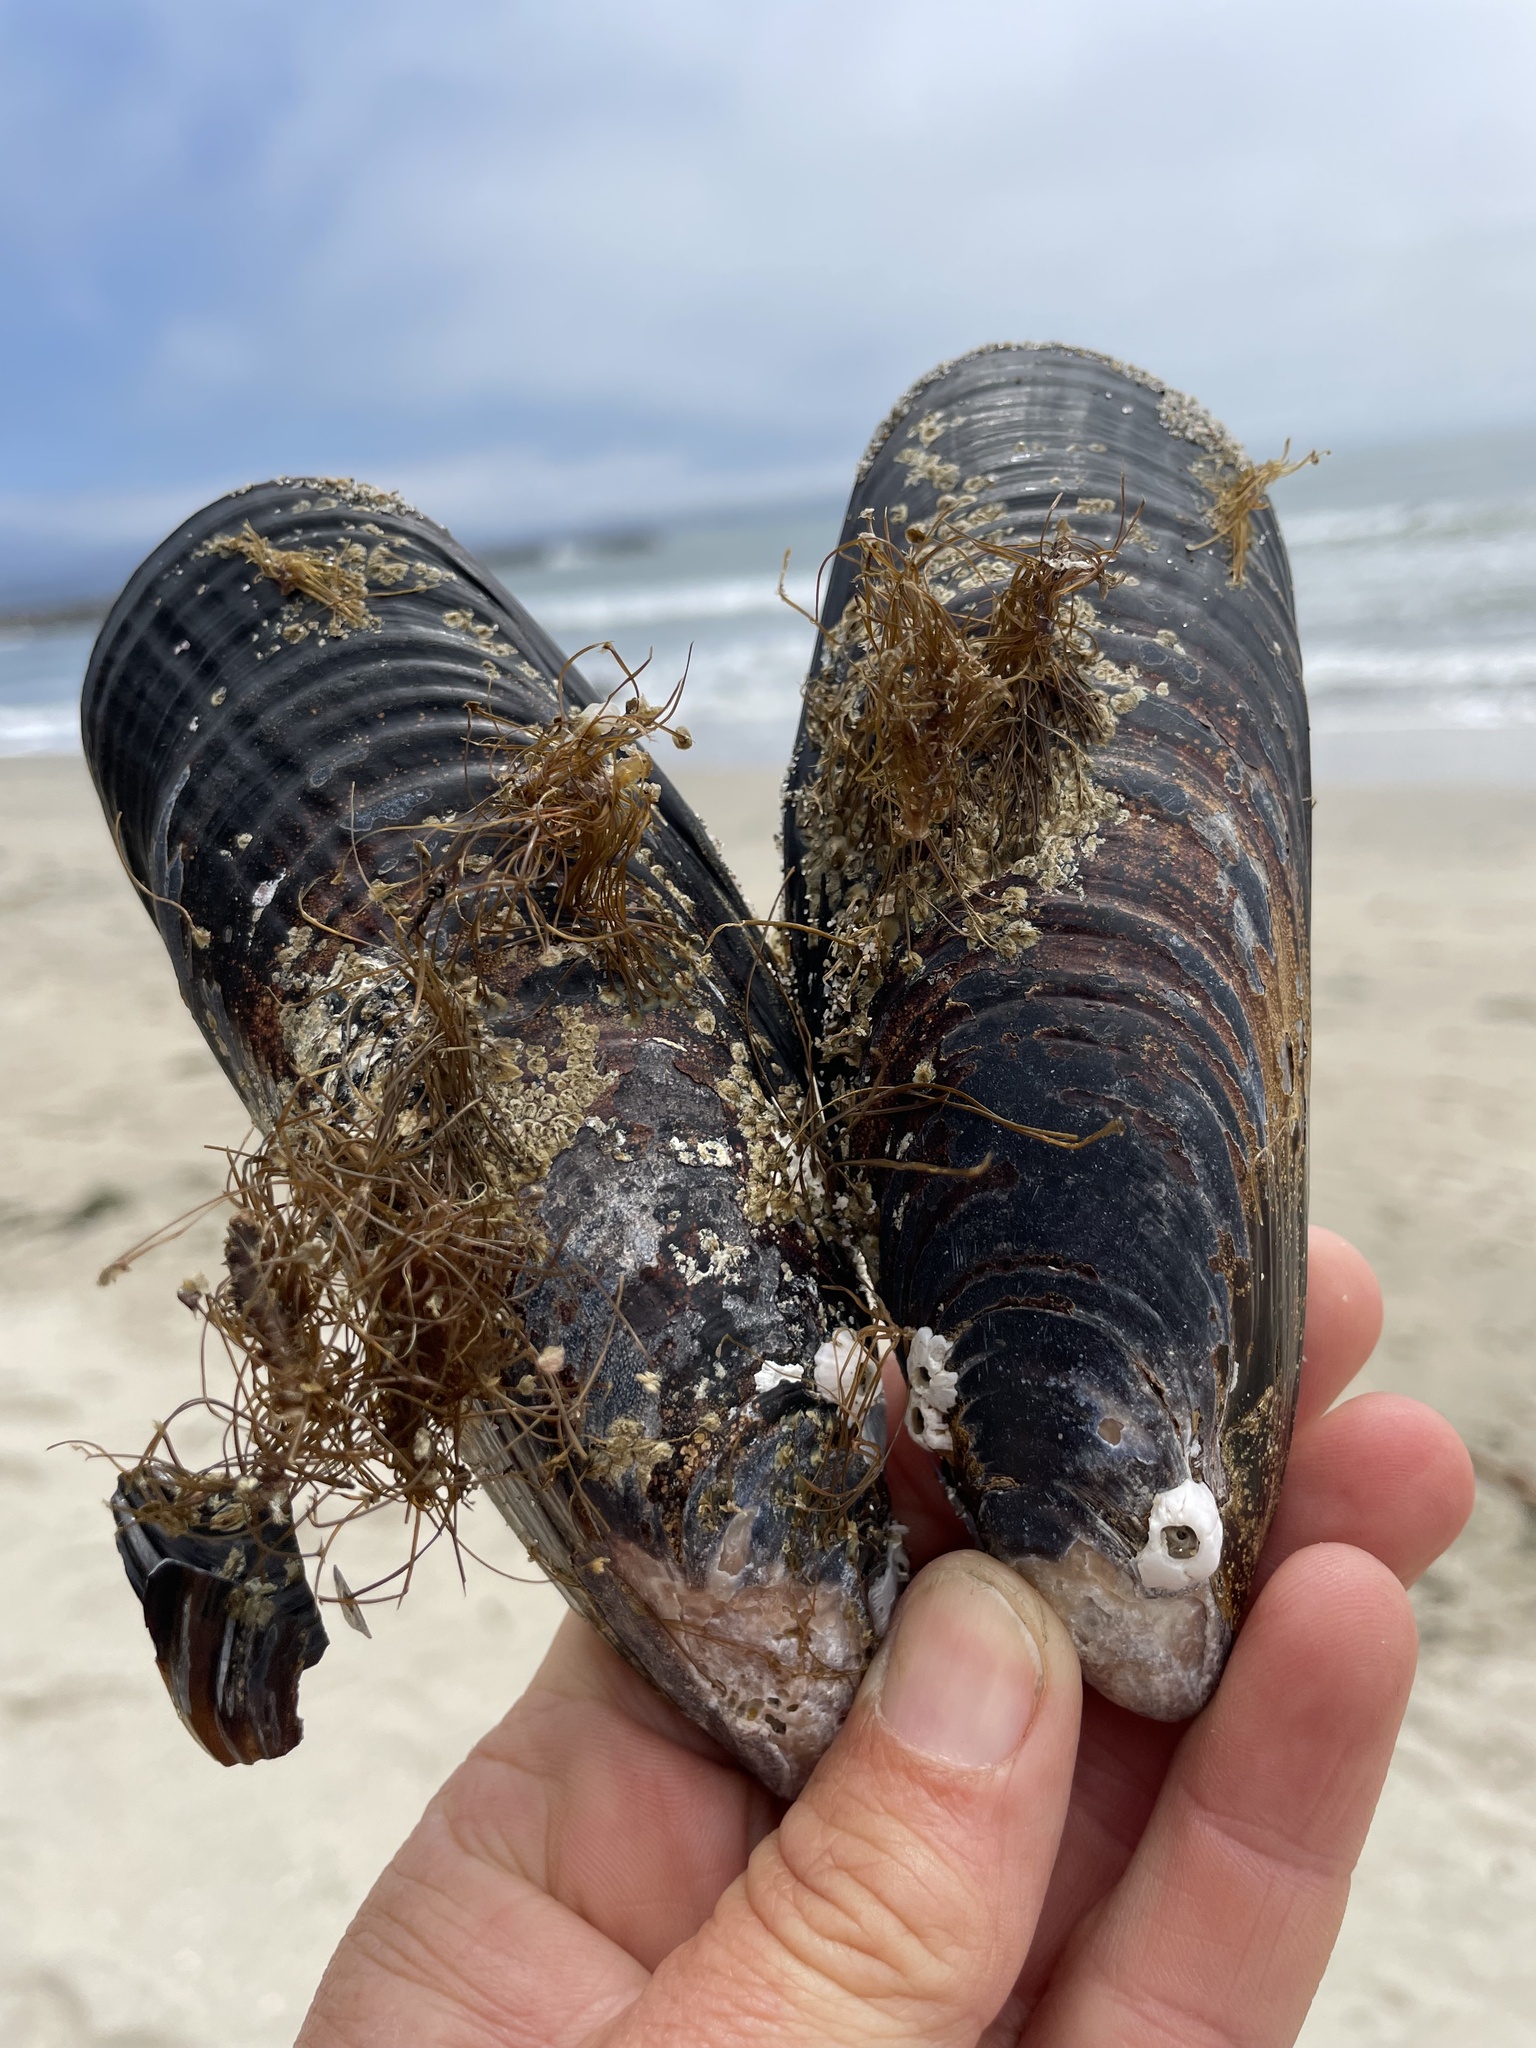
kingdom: Animalia
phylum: Mollusca
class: Bivalvia
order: Mytilida
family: Mytilidae
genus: Mytilus
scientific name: Mytilus californianus
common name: California mussel
